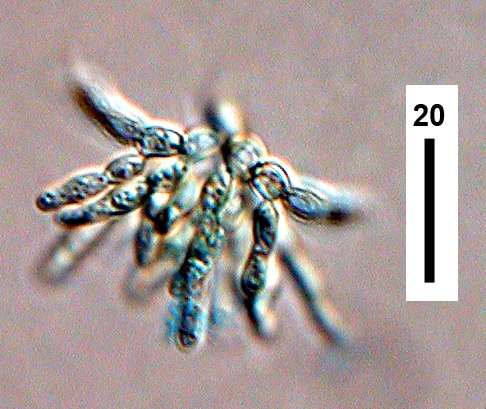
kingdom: Fungi
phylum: Ascomycota
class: Leotiomycetes
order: Helotiales
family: Helotiaceae
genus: Dendrospora
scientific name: Dendrospora juncicola
